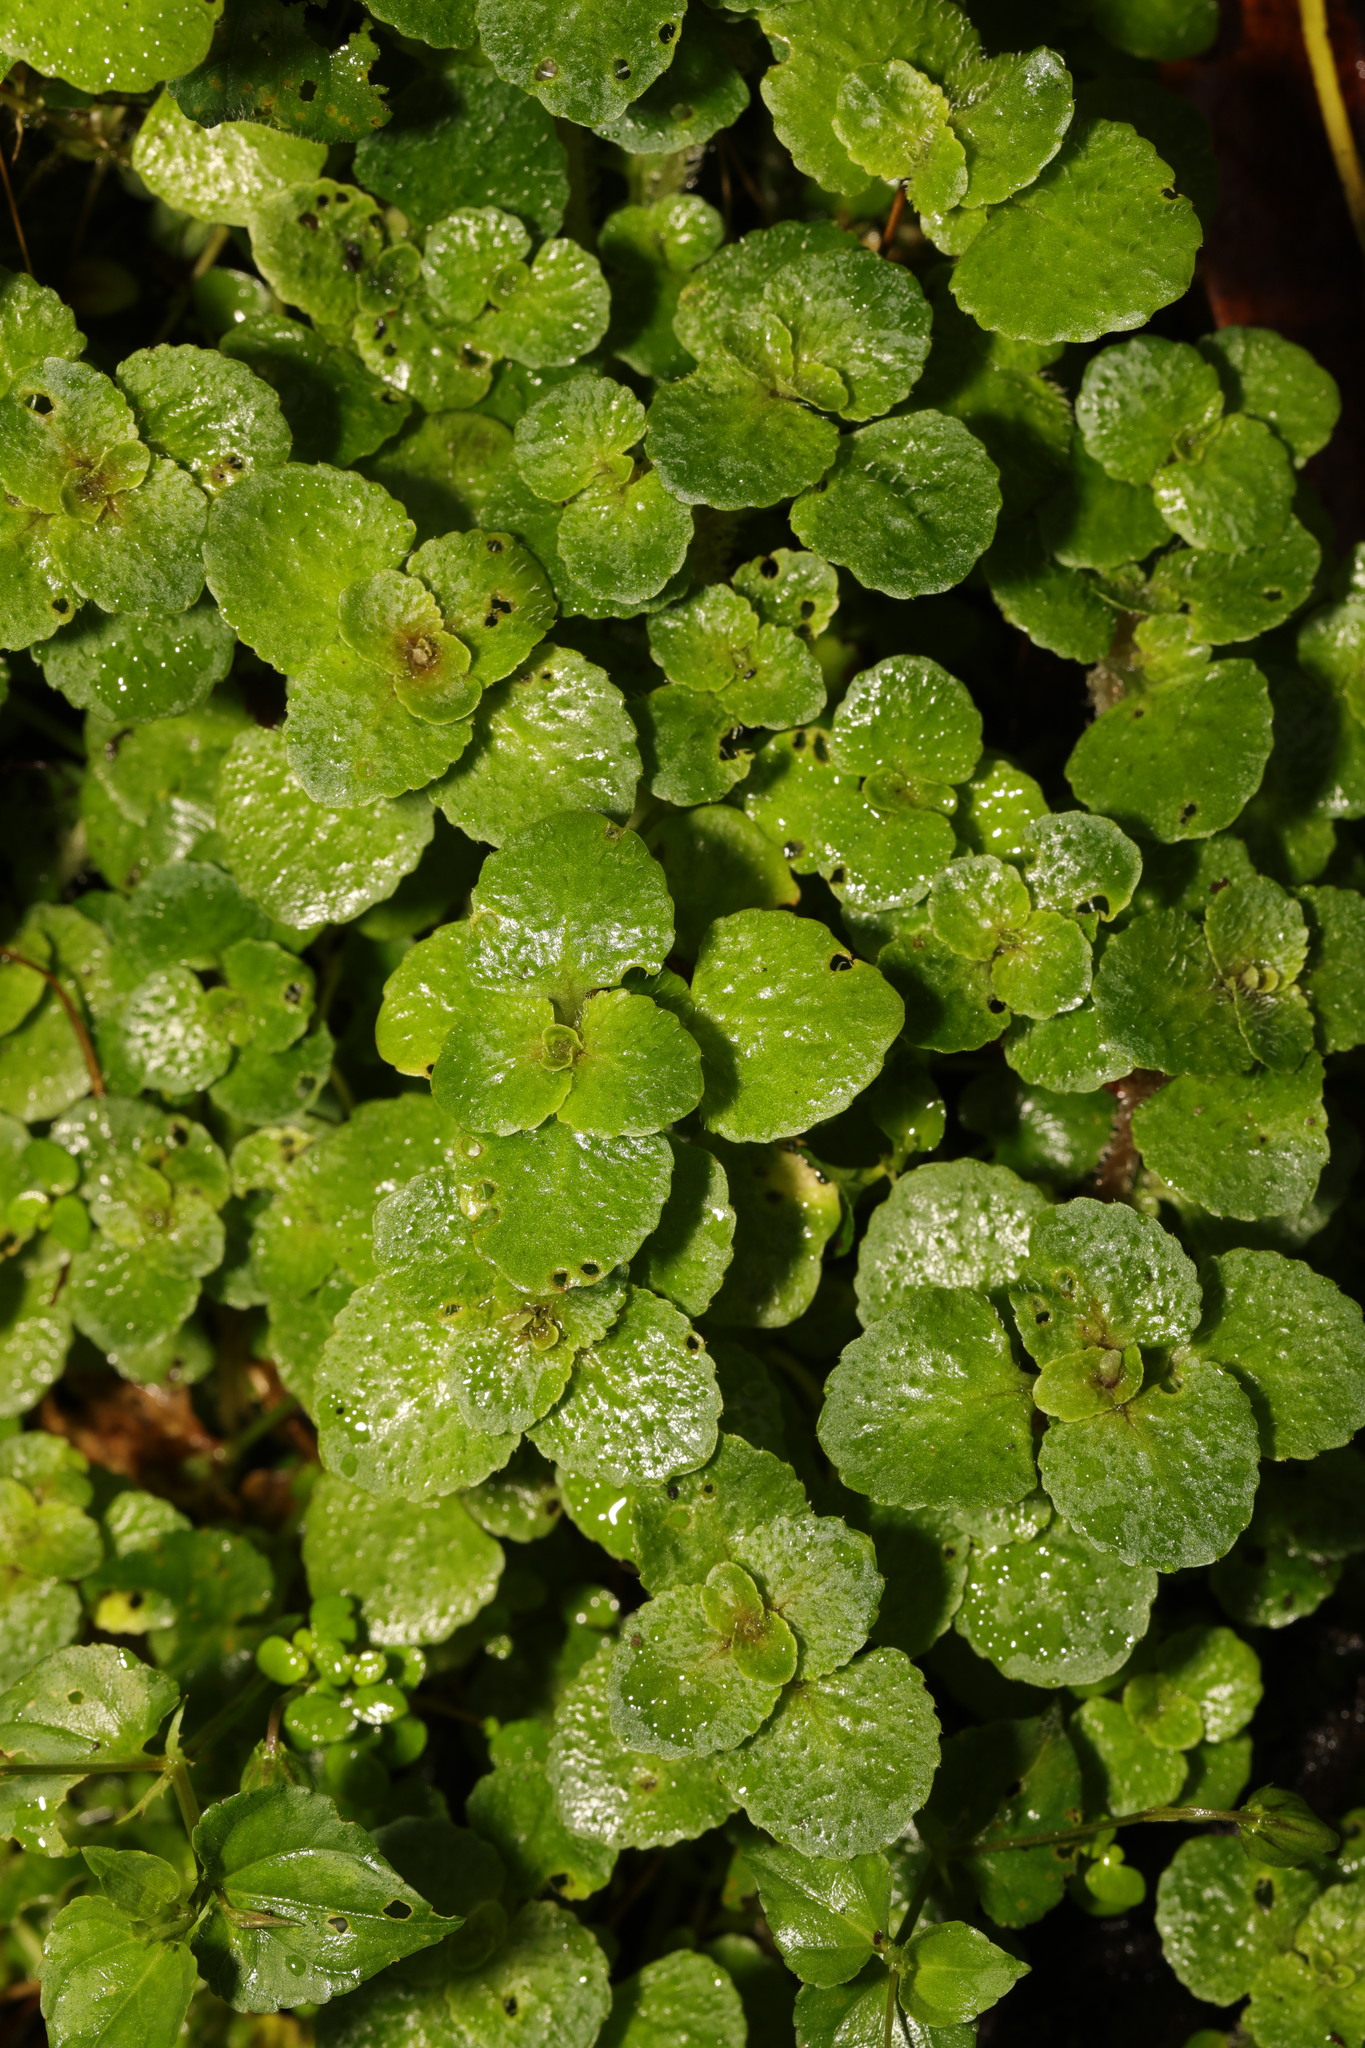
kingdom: Plantae
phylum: Tracheophyta
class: Magnoliopsida
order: Saxifragales
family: Saxifragaceae
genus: Chrysosplenium
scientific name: Chrysosplenium oppositifolium
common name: Opposite-leaved golden-saxifrage
